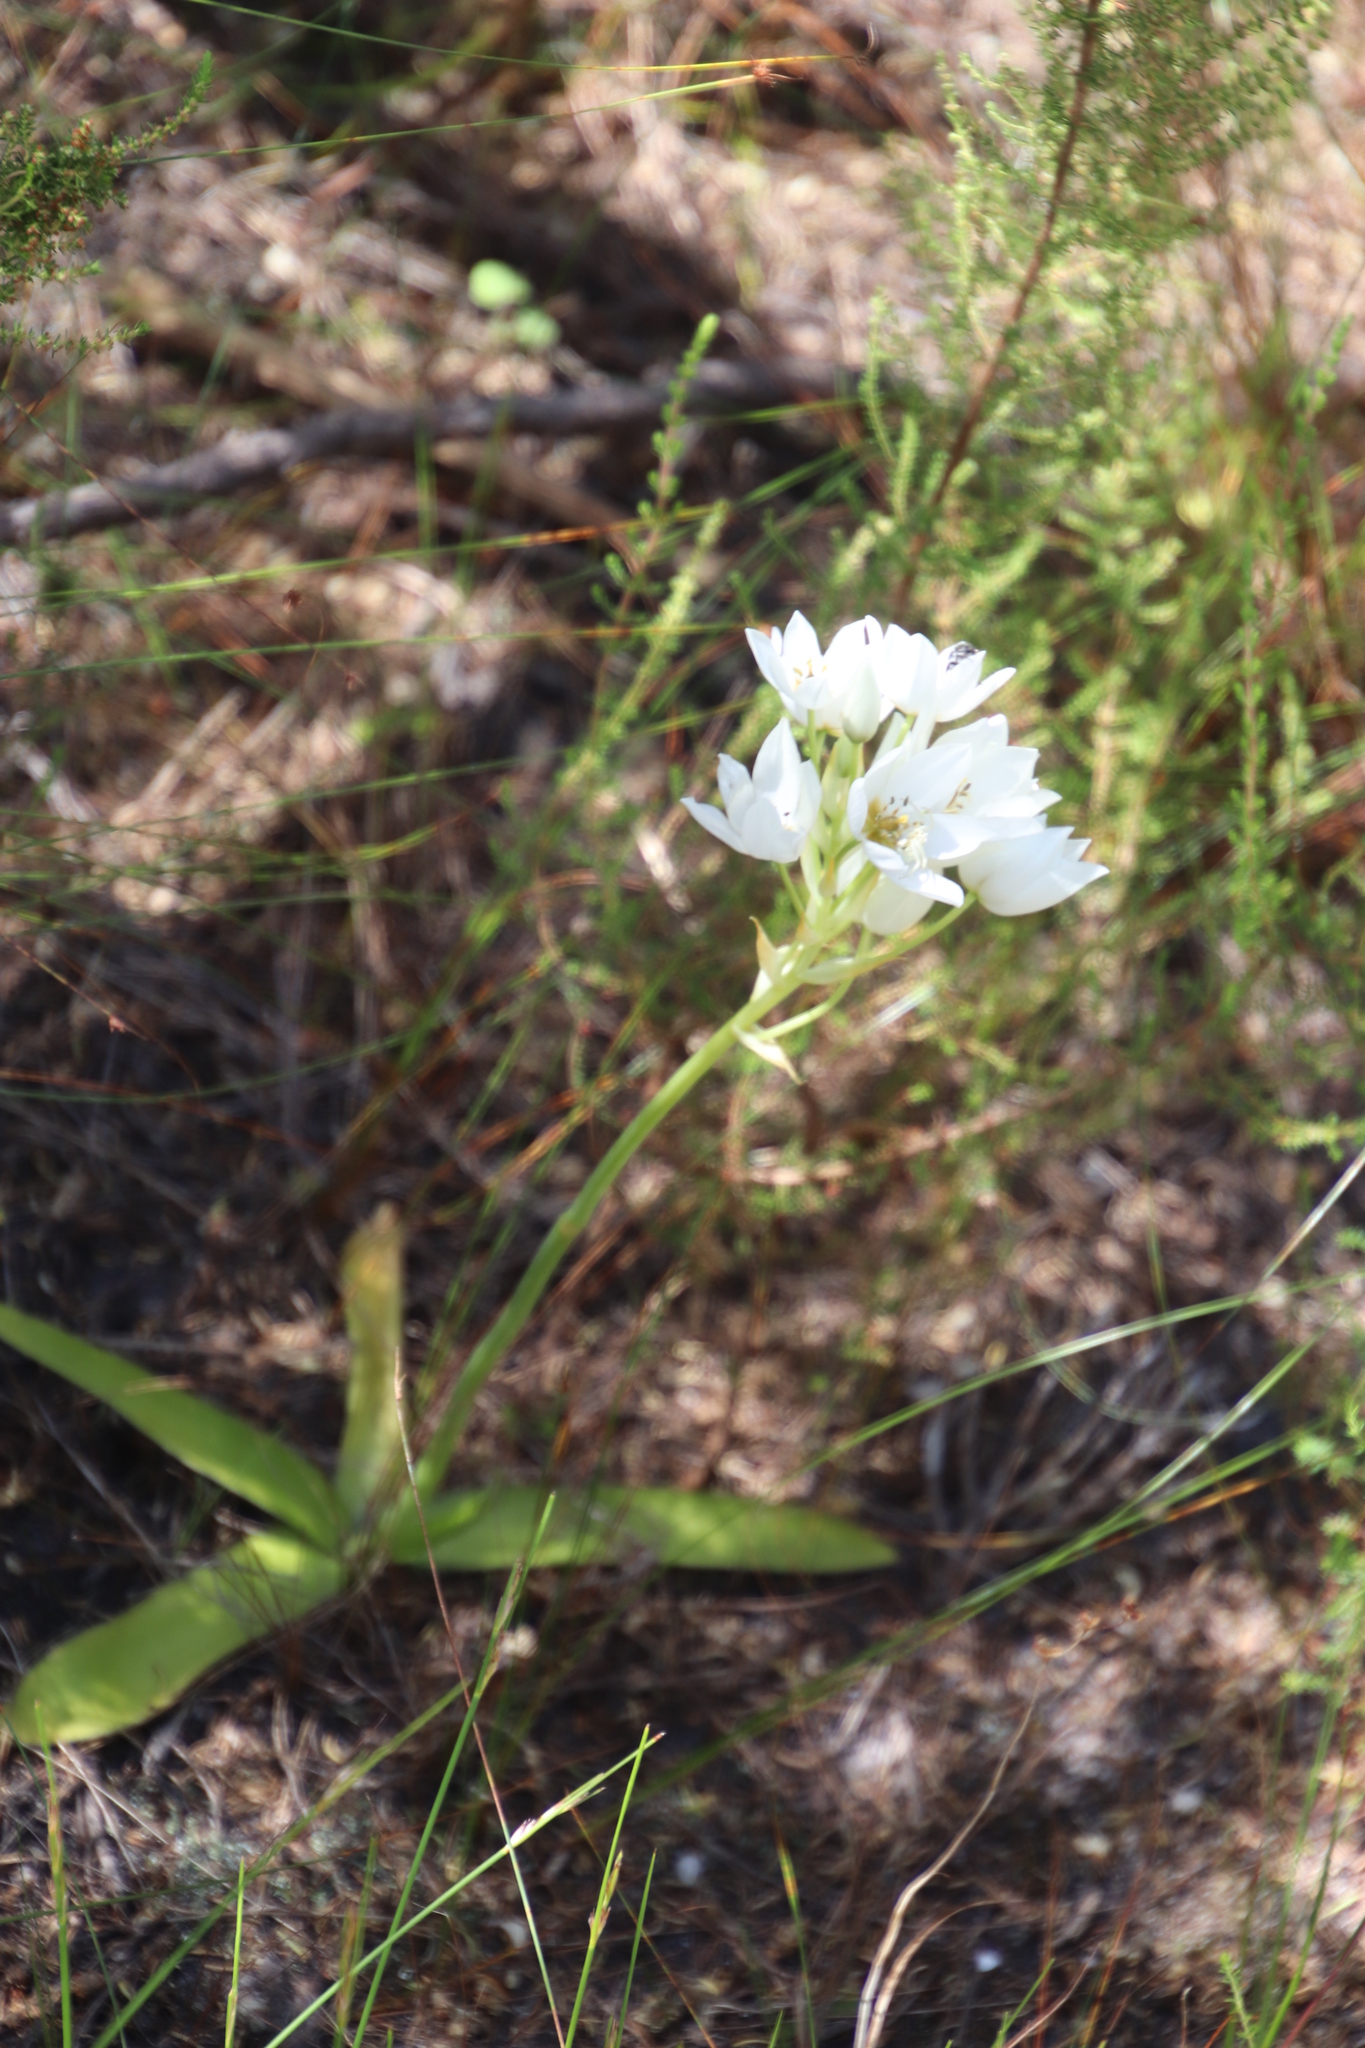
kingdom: Plantae
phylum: Tracheophyta
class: Liliopsida
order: Asparagales
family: Asparagaceae
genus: Ornithogalum
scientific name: Ornithogalum thyrsoides
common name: Chincherinchee
